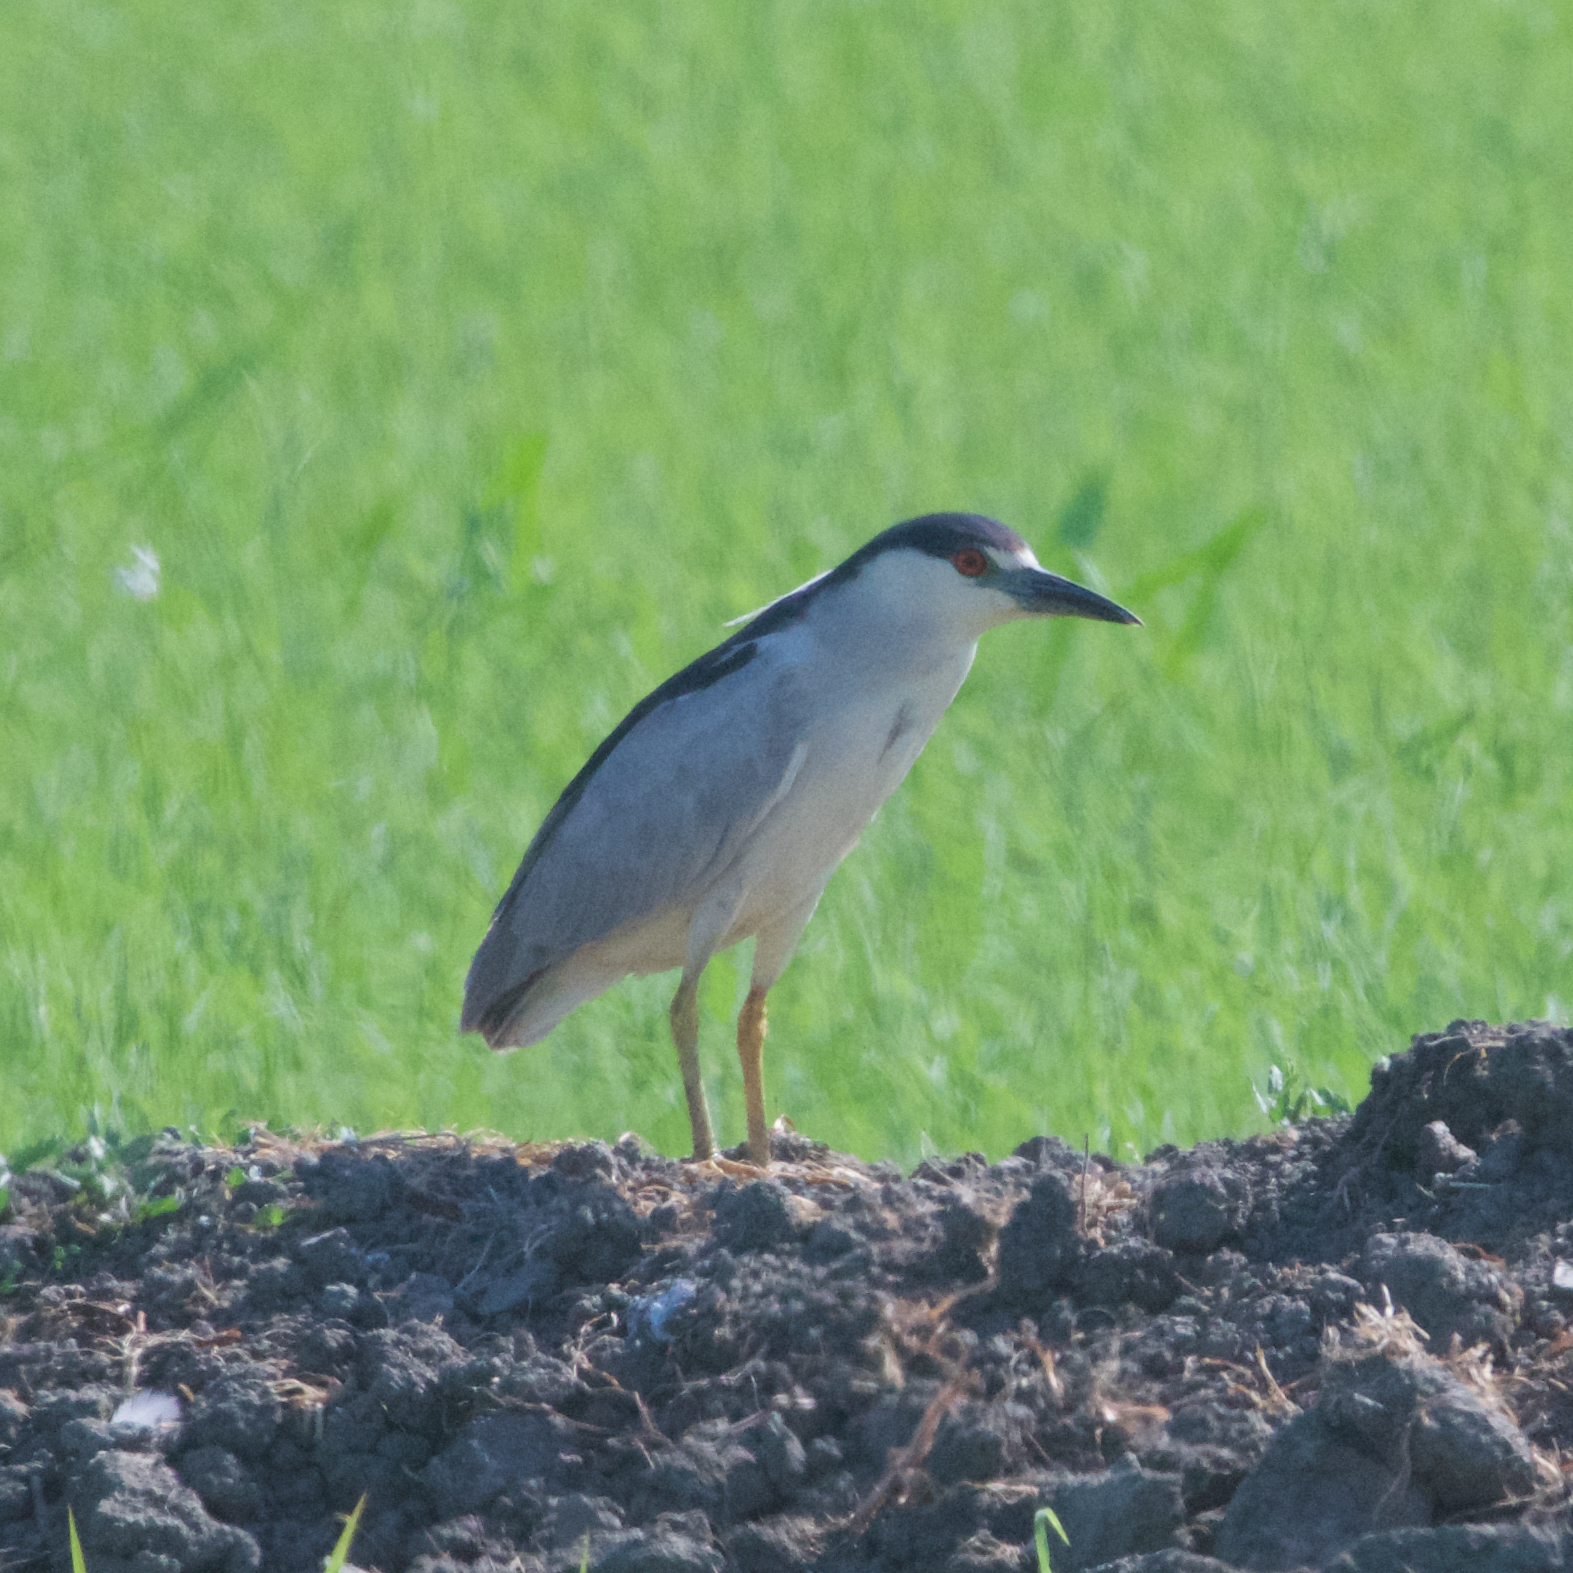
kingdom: Animalia
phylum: Chordata
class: Aves
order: Pelecaniformes
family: Ardeidae
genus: Nycticorax
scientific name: Nycticorax nycticorax
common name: Black-crowned night heron
